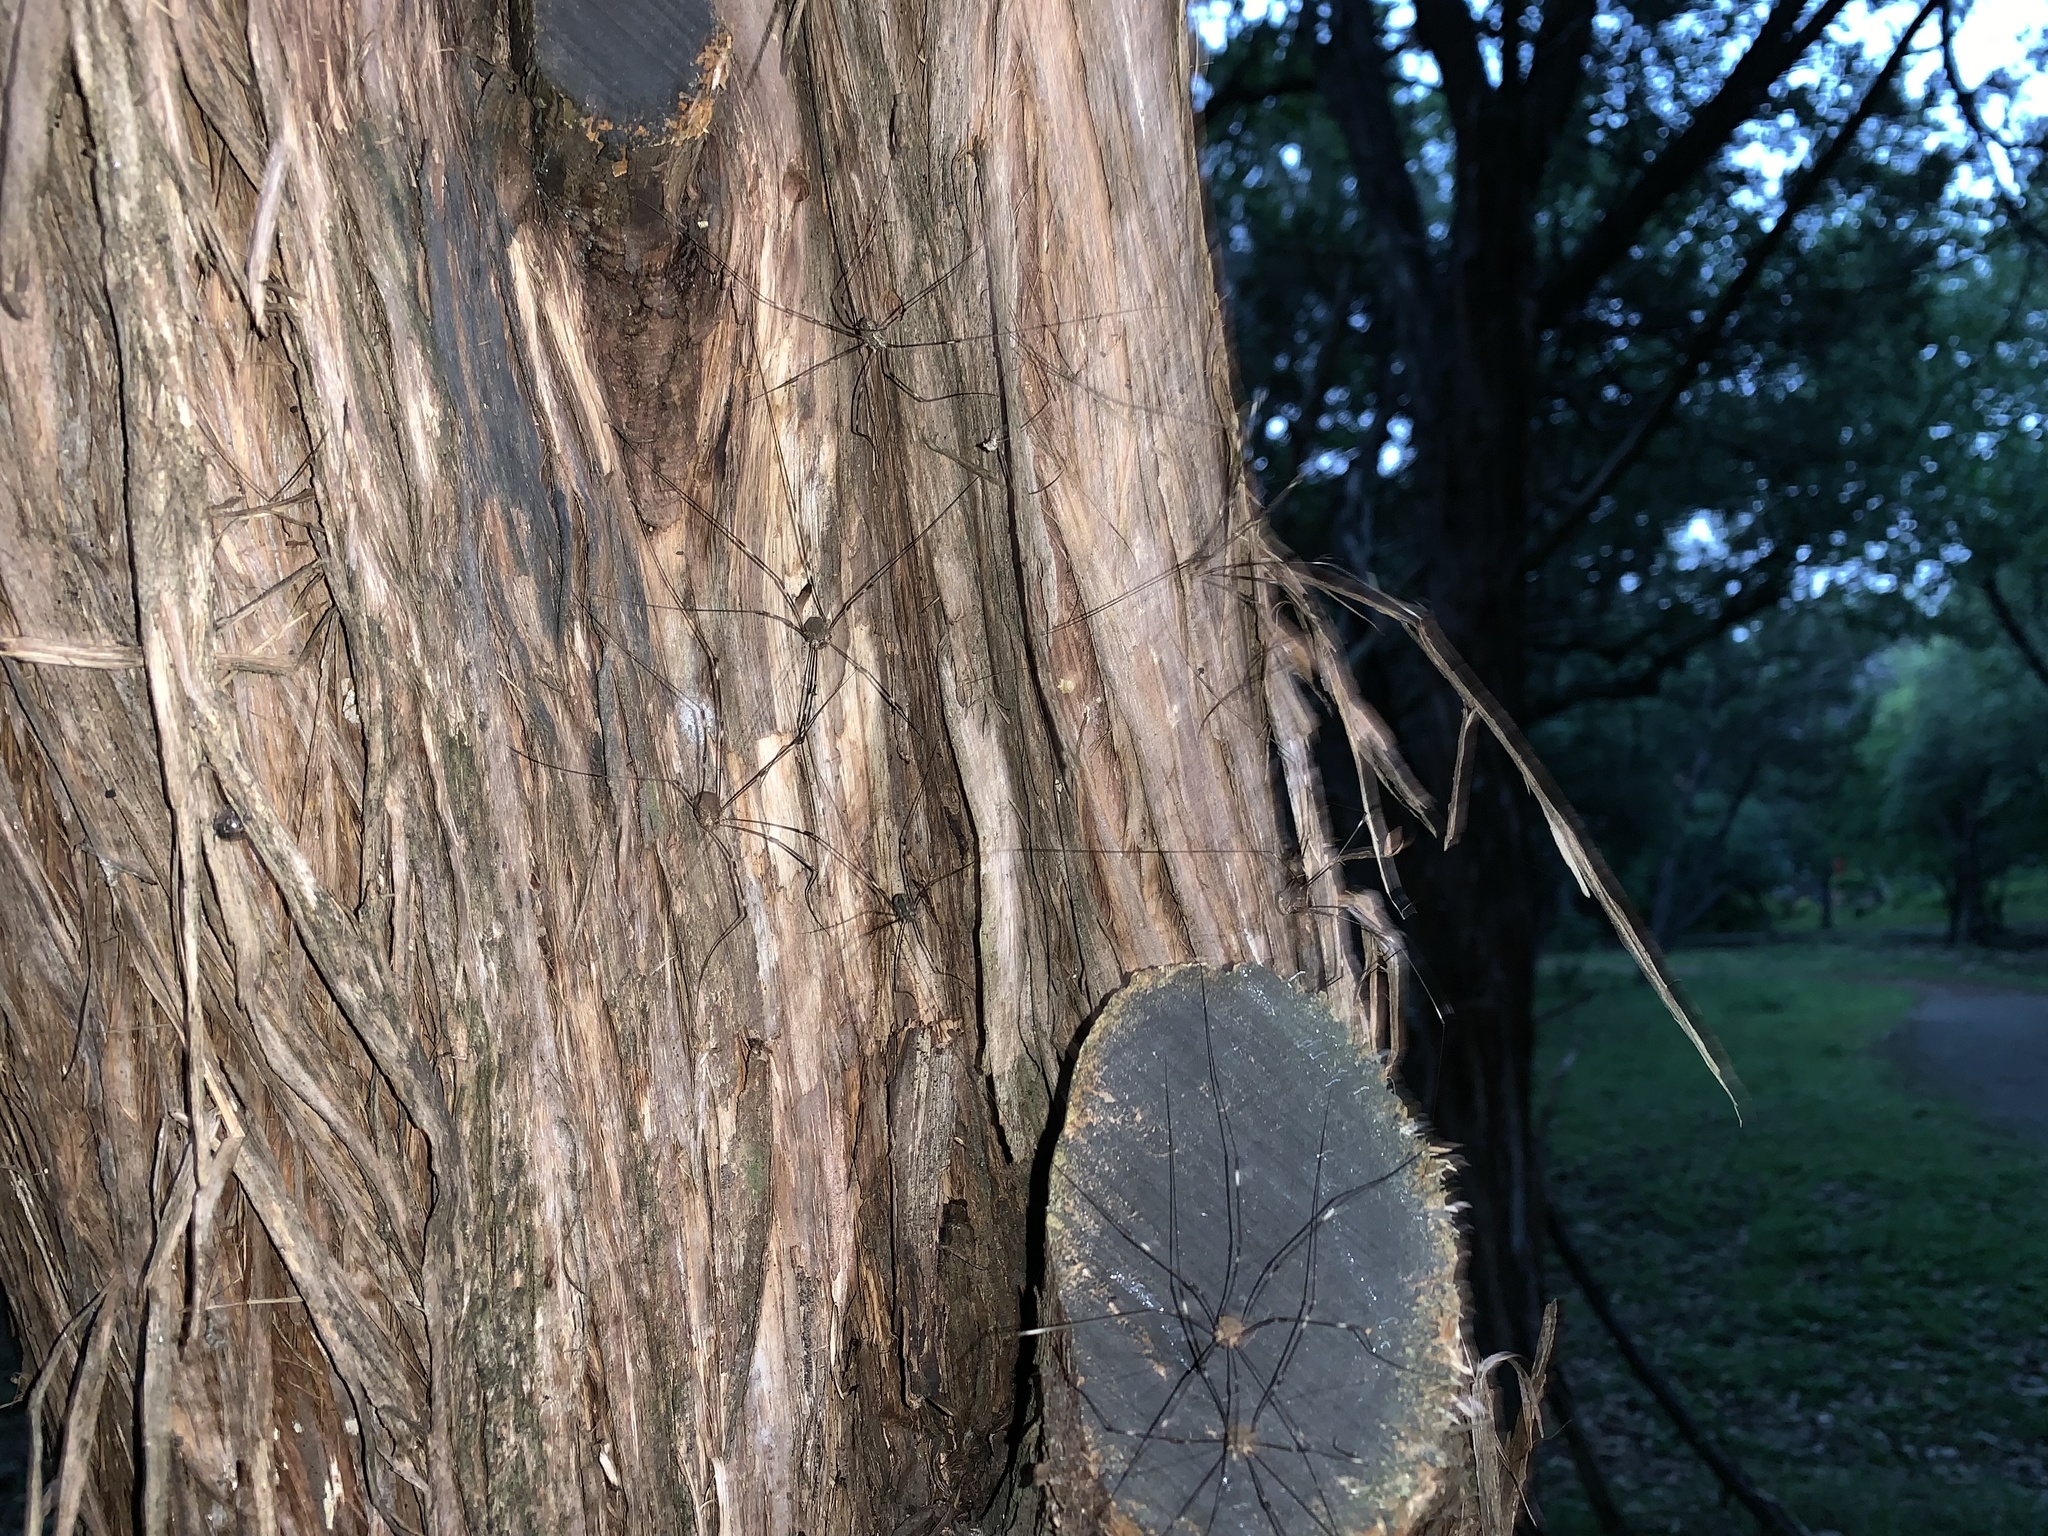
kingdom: Animalia
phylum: Arthropoda
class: Arachnida
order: Opiliones
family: Sclerosomatidae
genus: Leiobunum
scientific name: Leiobunum townsendi
